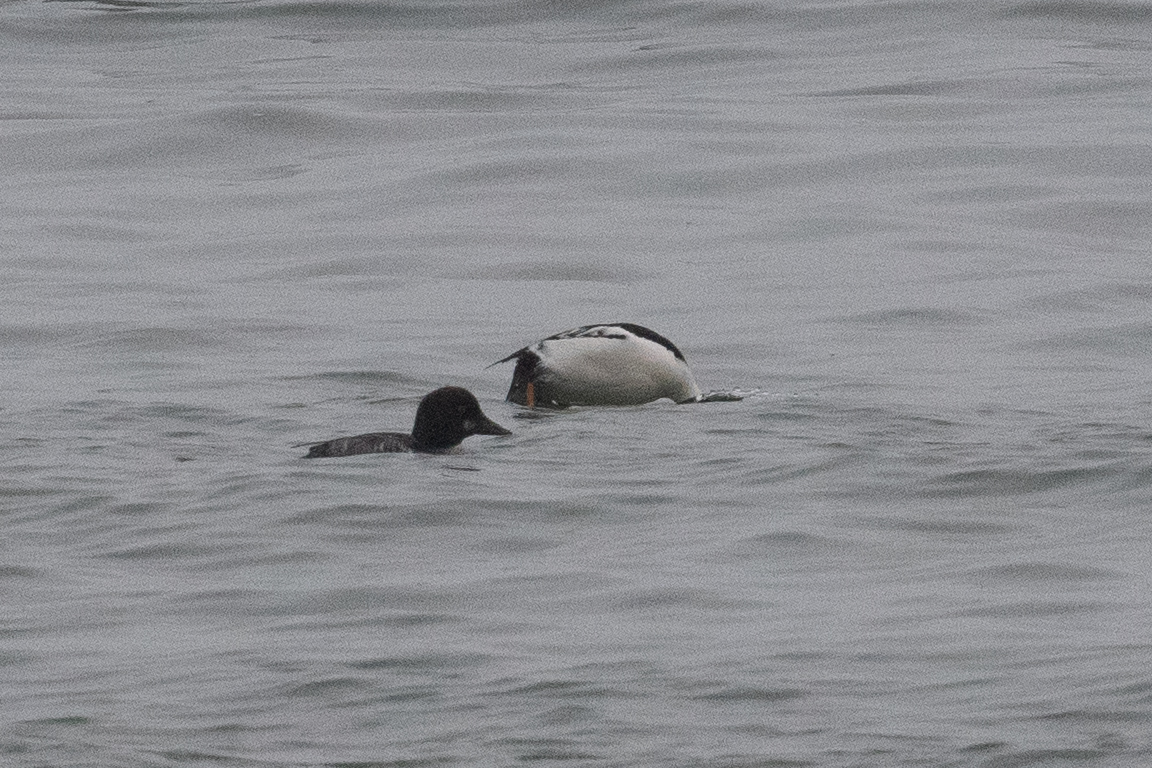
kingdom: Animalia
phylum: Chordata
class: Aves
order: Anseriformes
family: Anatidae
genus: Bucephala
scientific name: Bucephala clangula
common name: Common goldeneye
